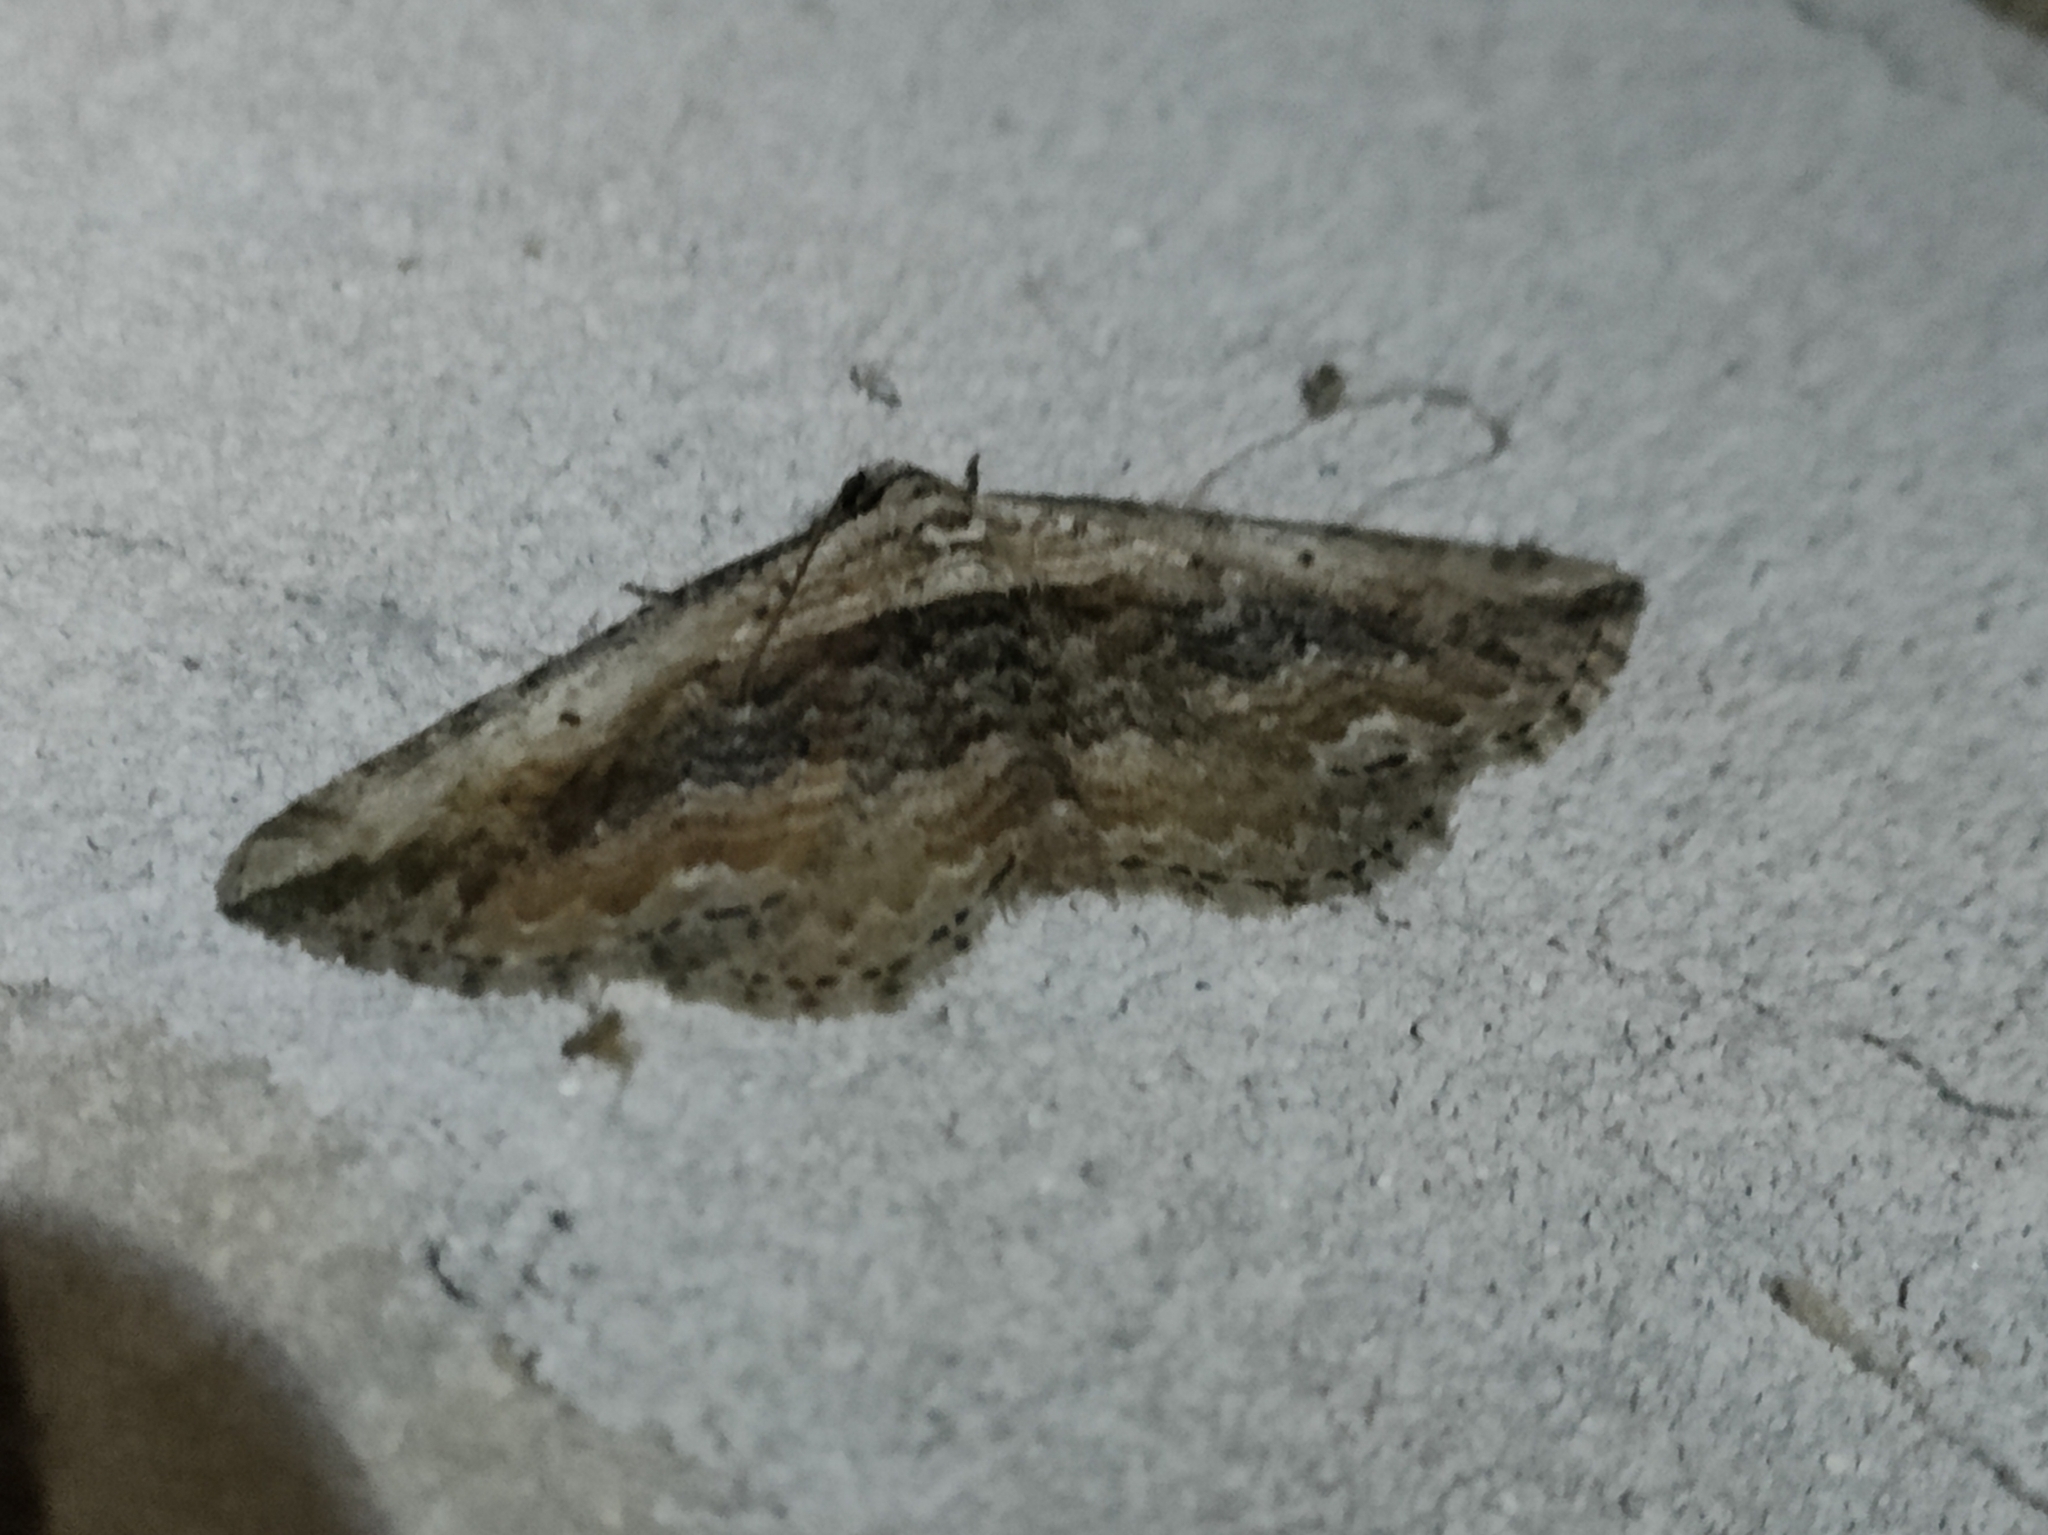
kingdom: Animalia
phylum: Arthropoda
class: Insecta
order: Lepidoptera
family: Geometridae
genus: Horisme
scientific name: Horisme vitalbata
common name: Small waved umber
